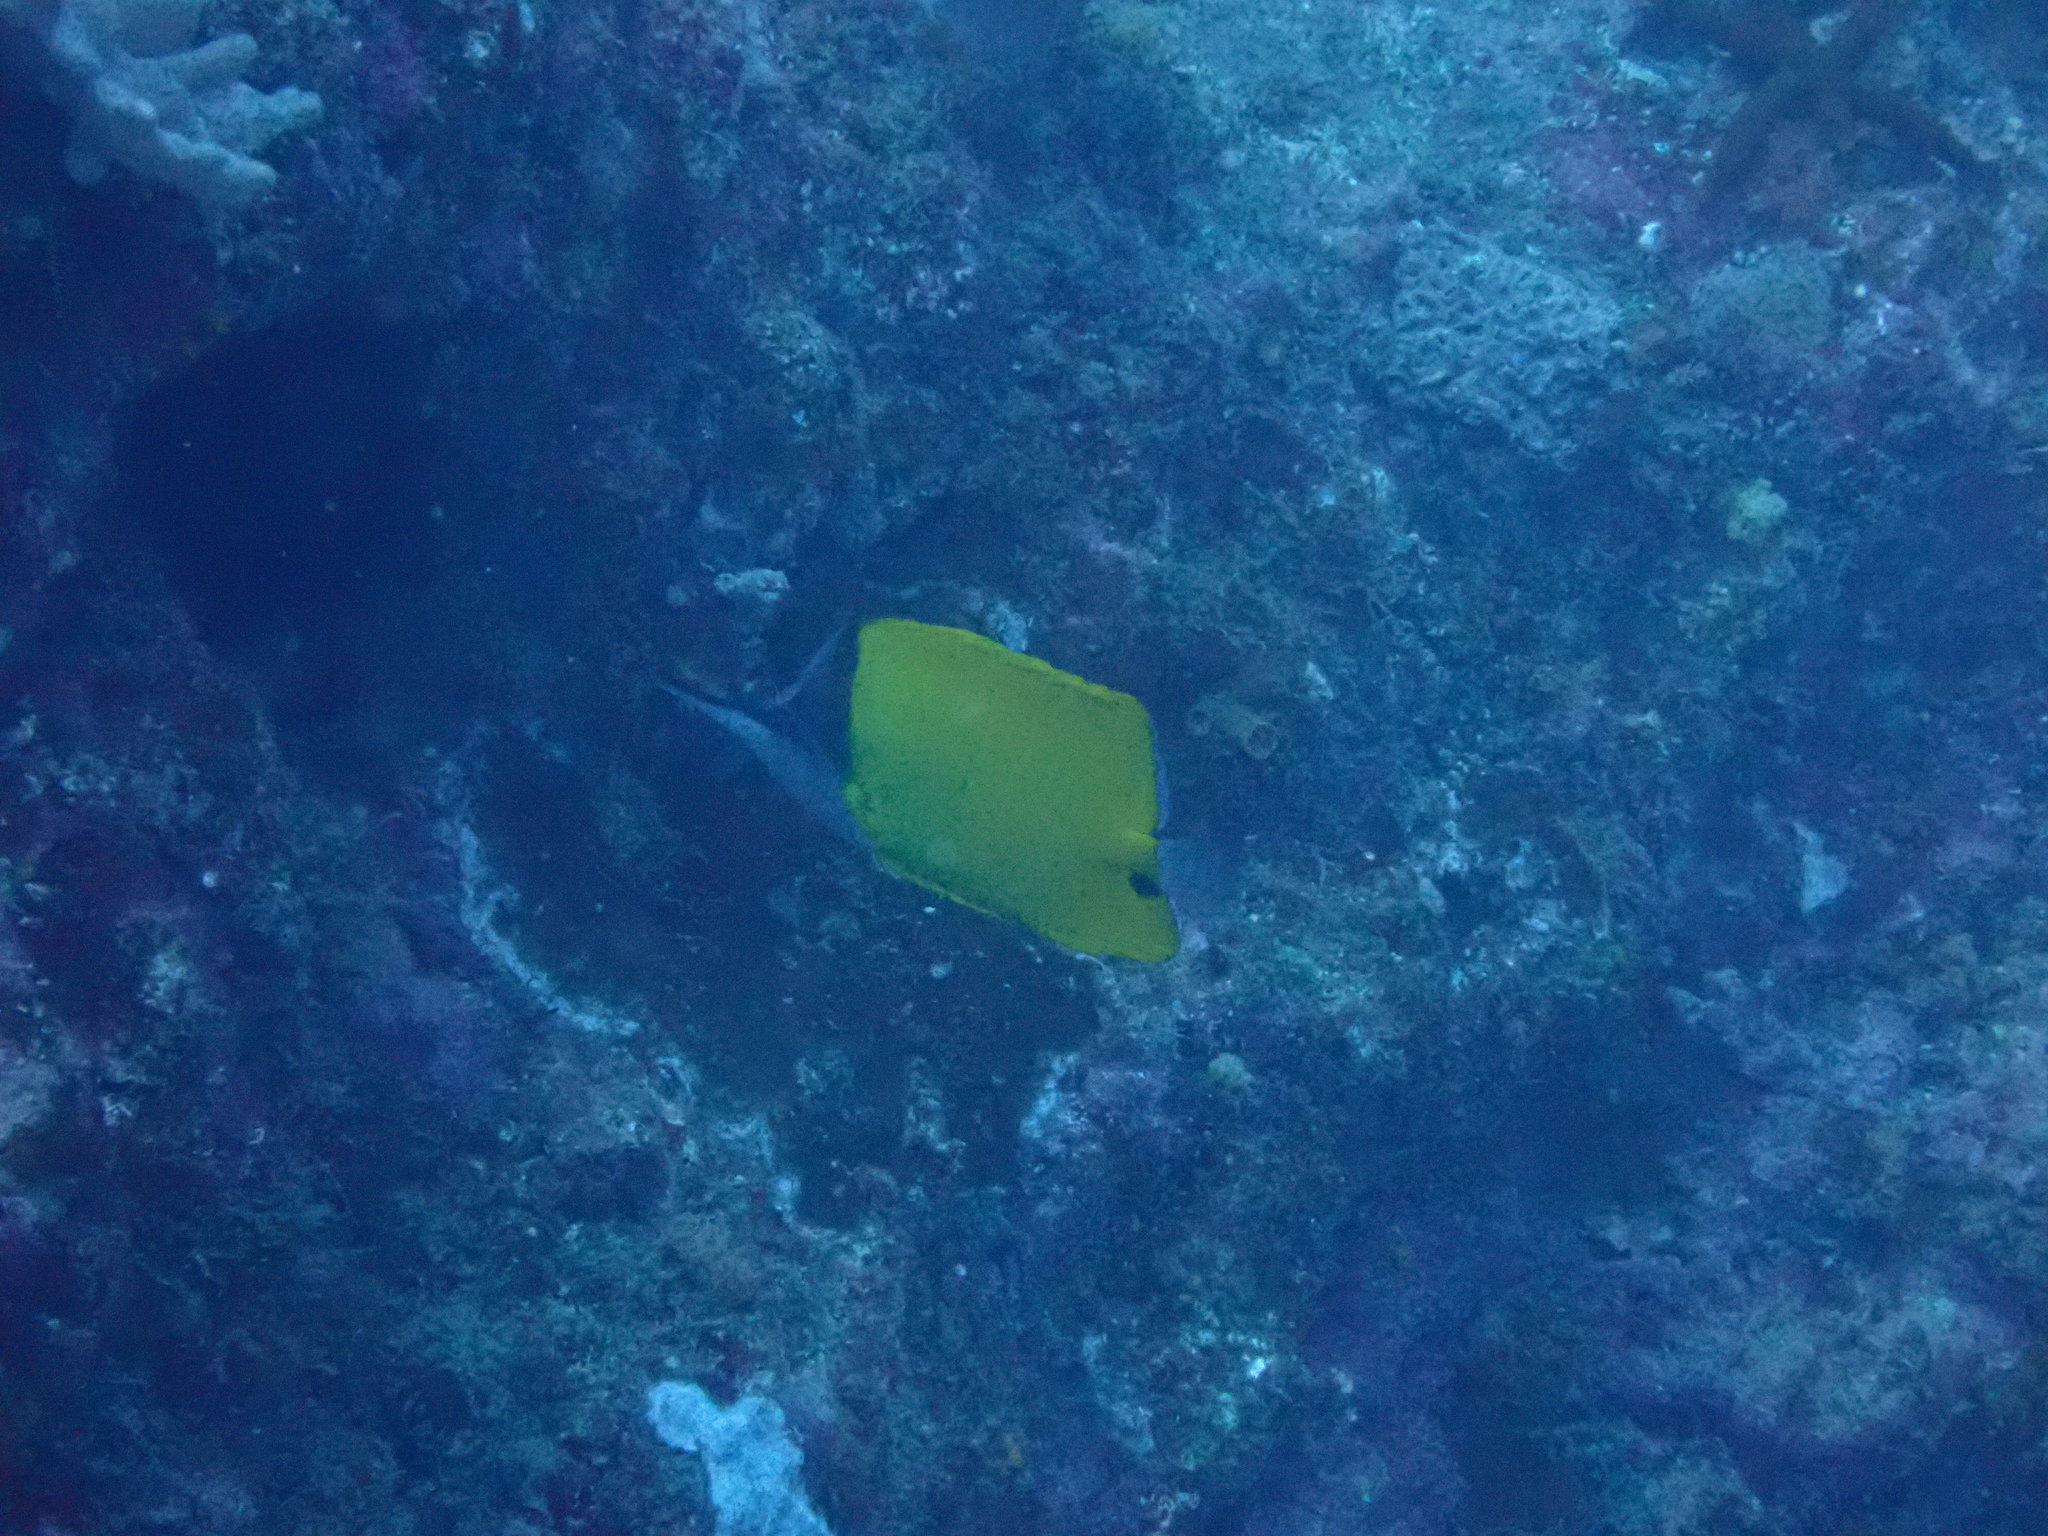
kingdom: Animalia
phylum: Chordata
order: Perciformes
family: Chaetodontidae
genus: Forcipiger
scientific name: Forcipiger flavissimus
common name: Forcepsfish
